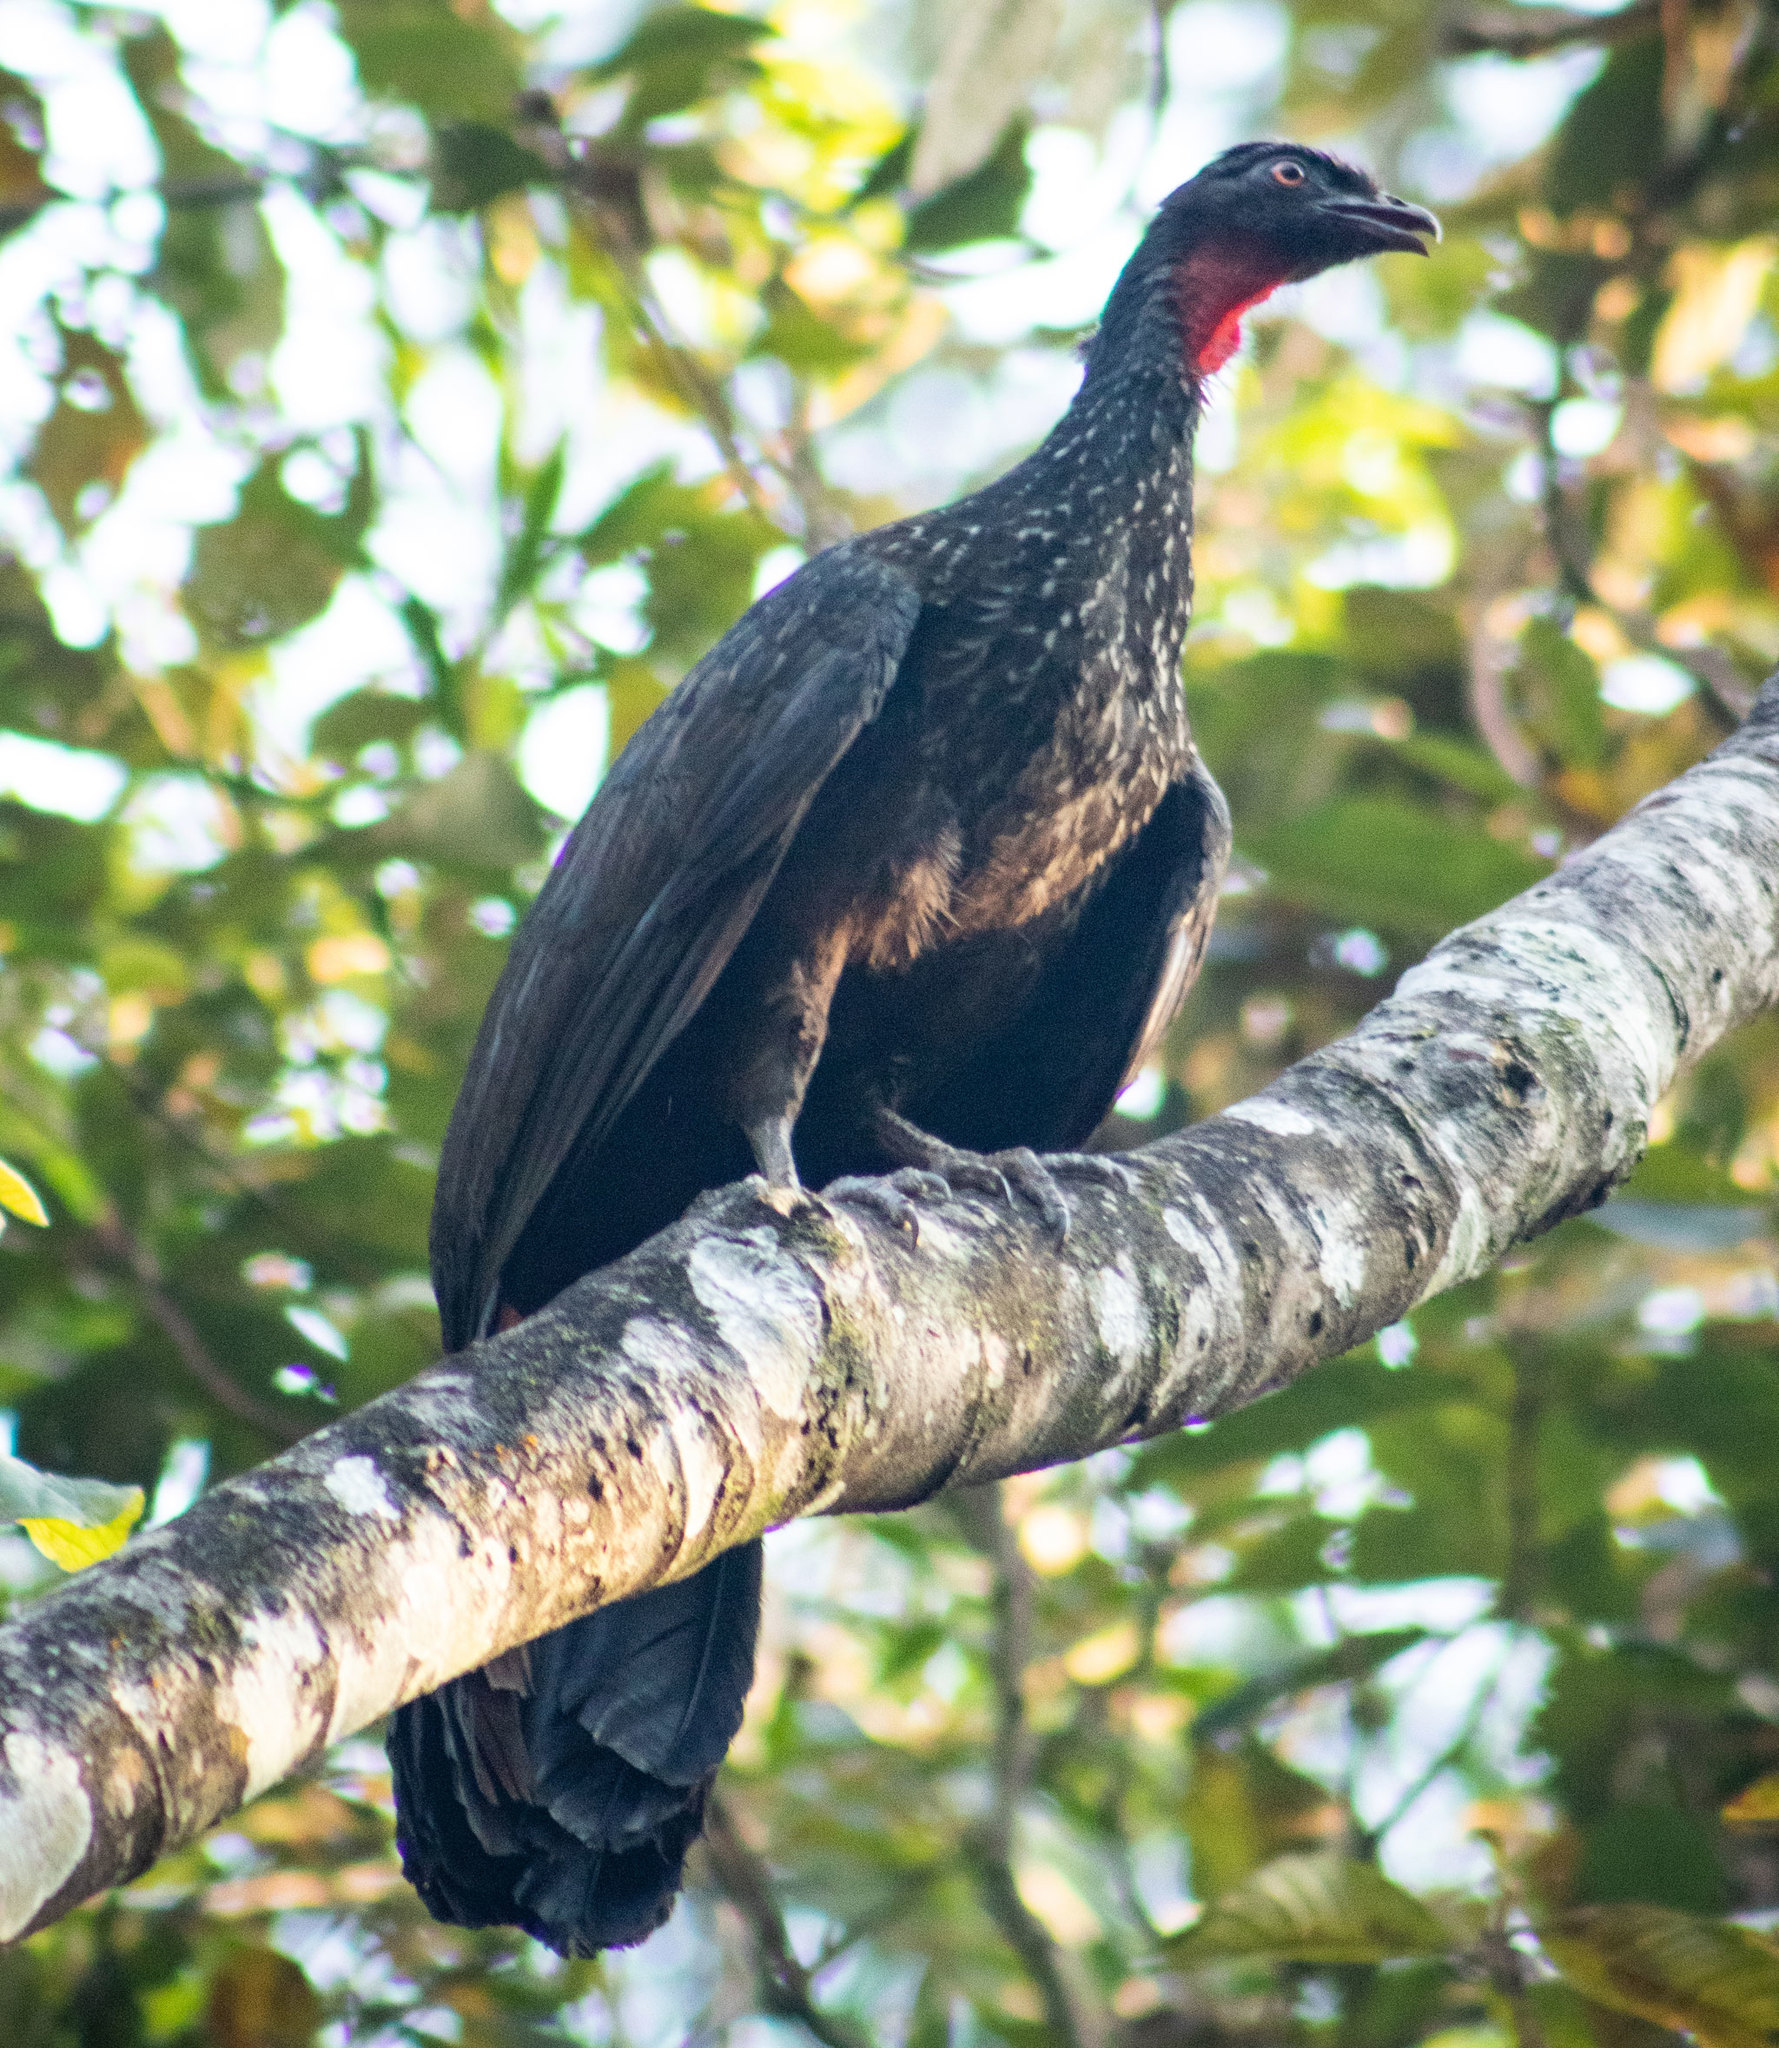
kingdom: Animalia
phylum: Chordata
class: Aves
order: Galliformes
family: Cracidae
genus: Penelope
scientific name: Penelope obscura
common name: Dusky-legged guan
